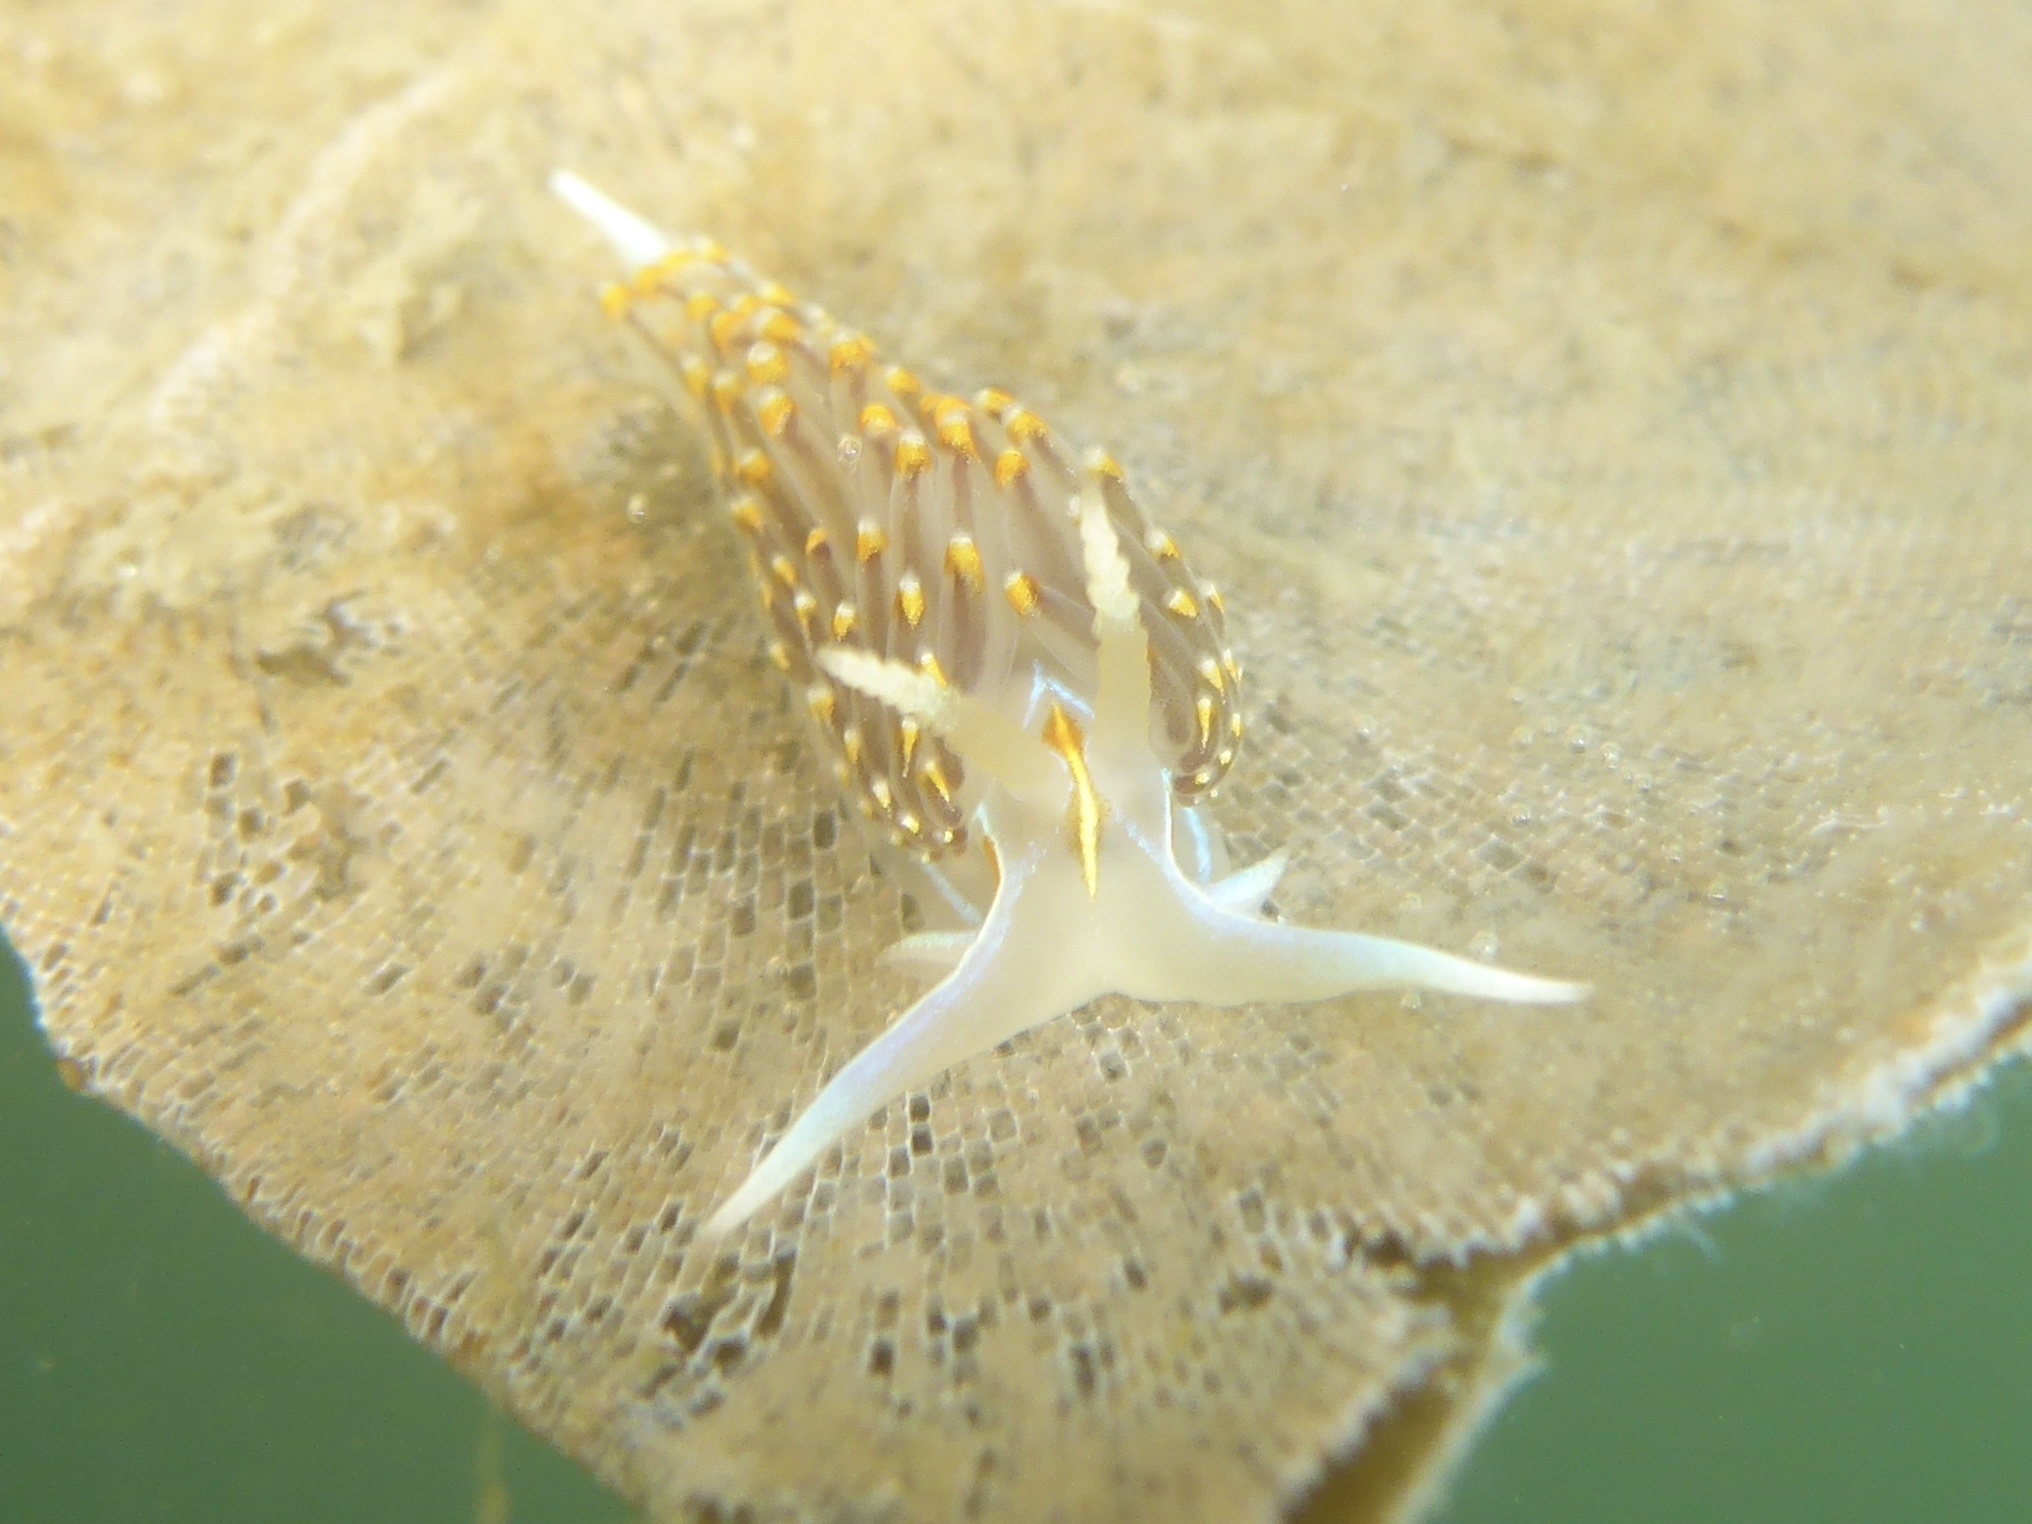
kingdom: Animalia
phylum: Mollusca
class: Gastropoda
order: Nudibranchia
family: Myrrhinidae
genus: Hermissenda
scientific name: Hermissenda opalescens
